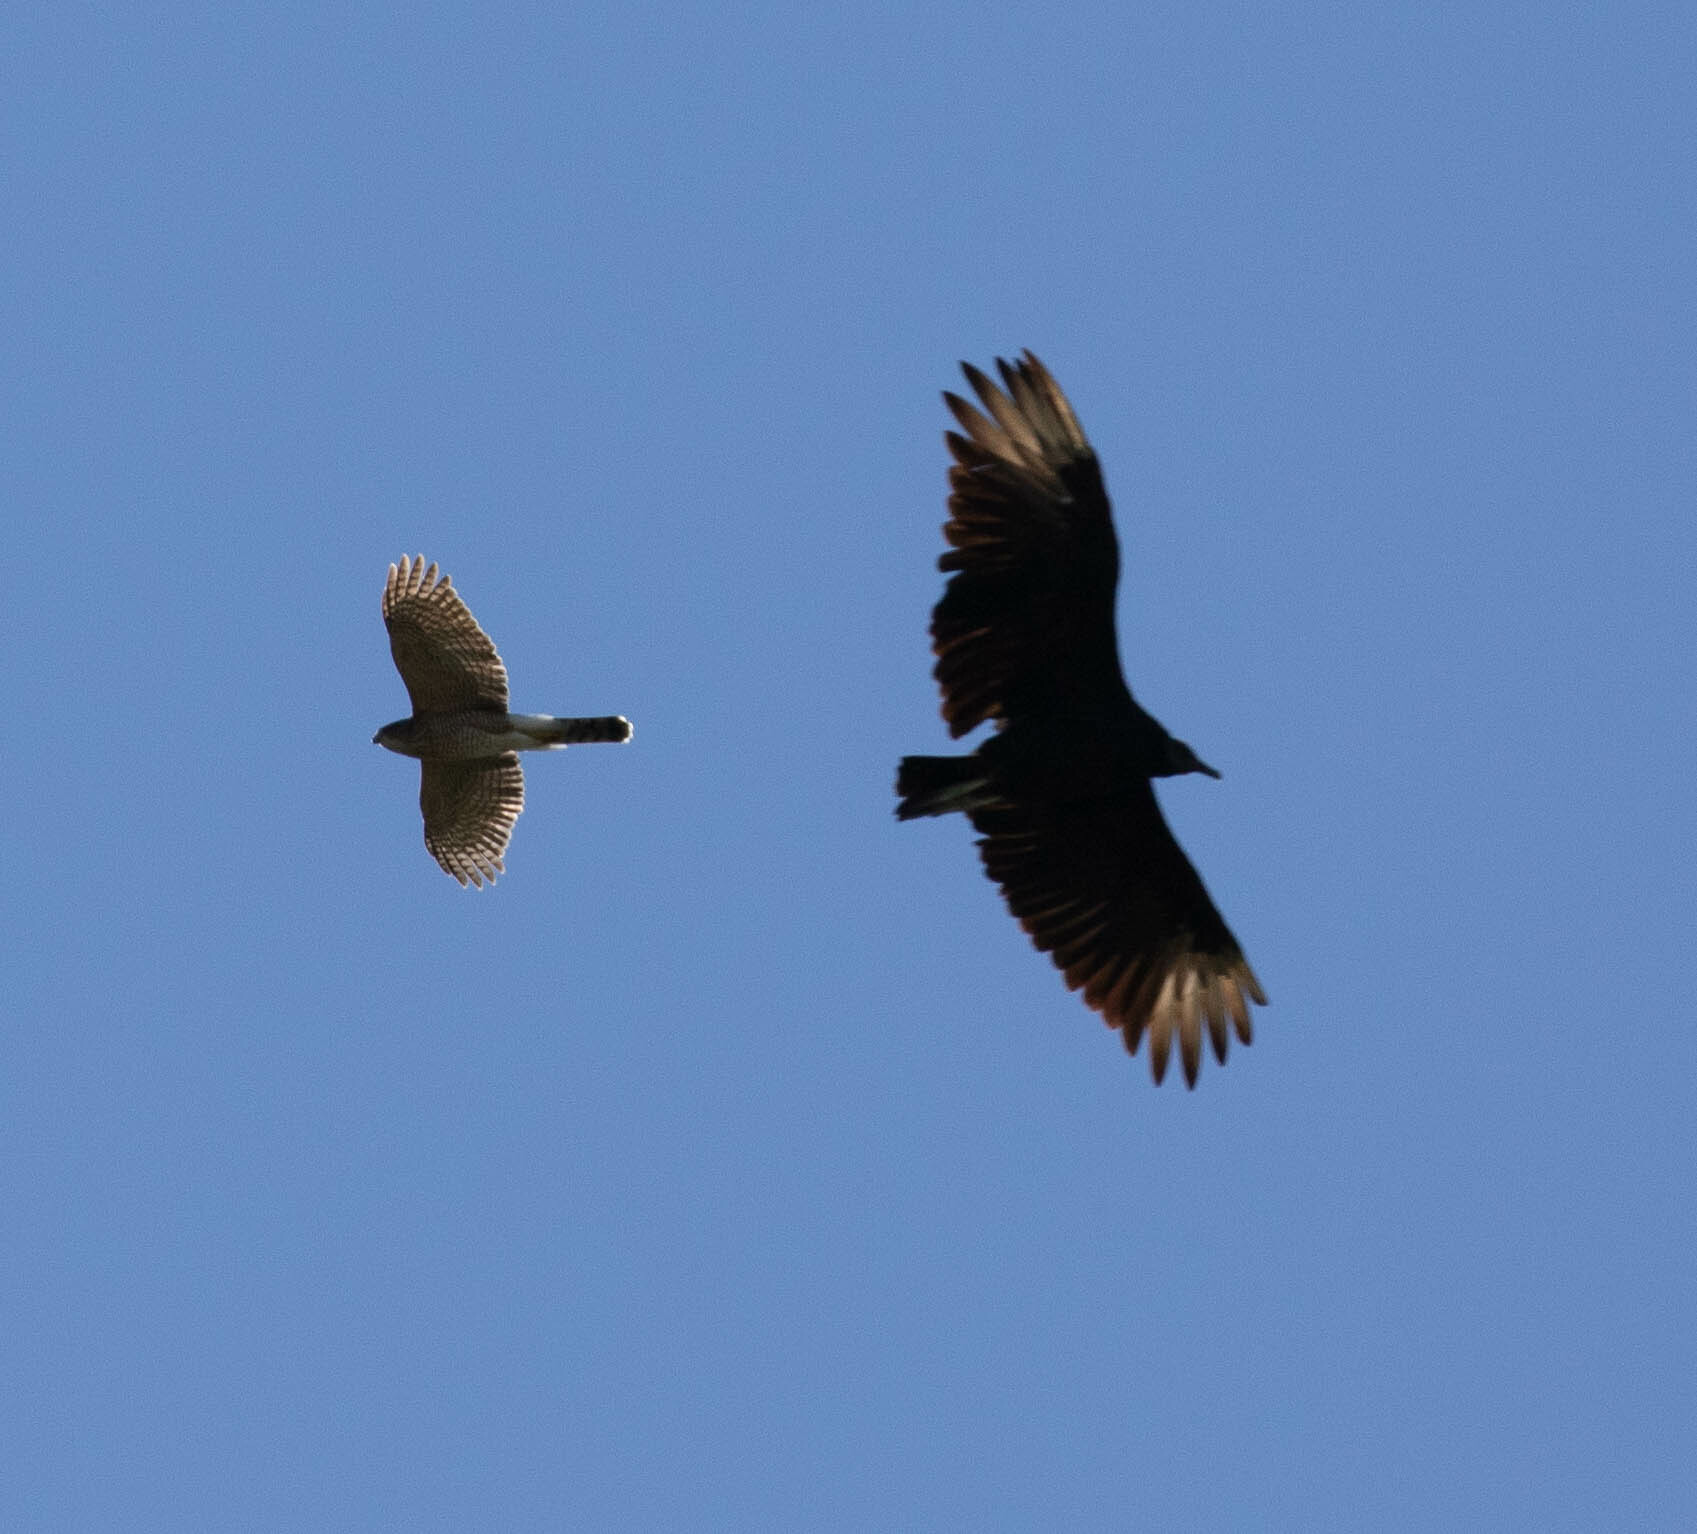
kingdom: Animalia
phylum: Chordata
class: Aves
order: Accipitriformes
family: Cathartidae
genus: Coragyps
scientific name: Coragyps atratus
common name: Black vulture
